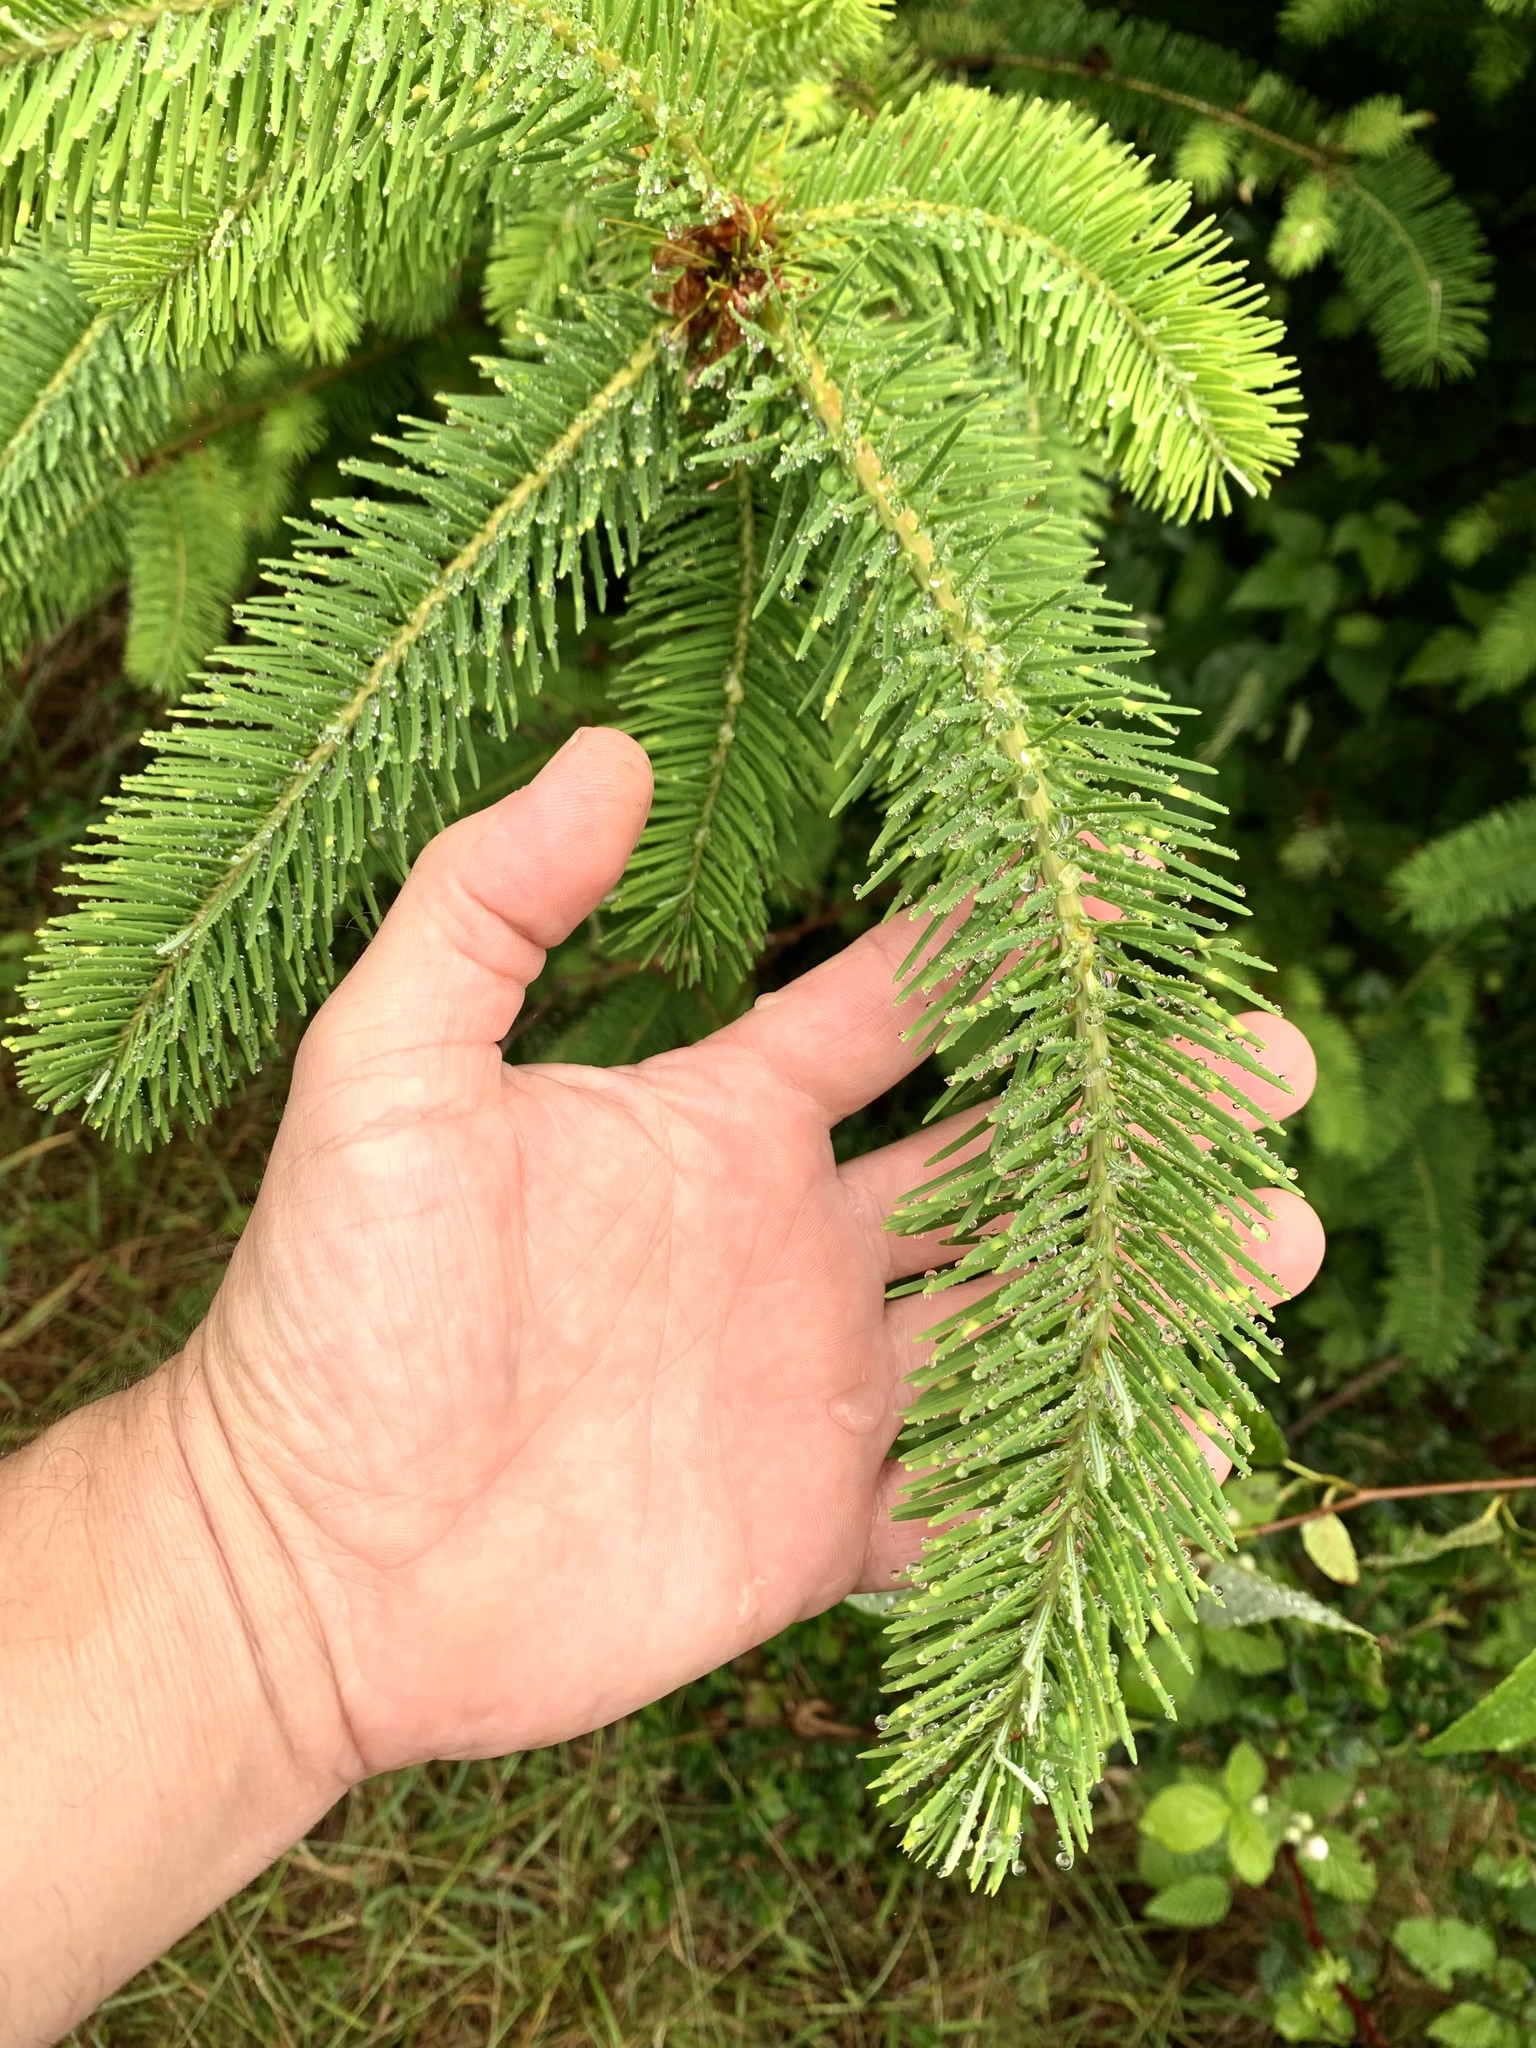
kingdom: Plantae
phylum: Tracheophyta
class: Pinopsida
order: Pinales
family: Pinaceae
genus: Pseudotsuga
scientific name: Pseudotsuga menziesii
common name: Douglas fir
